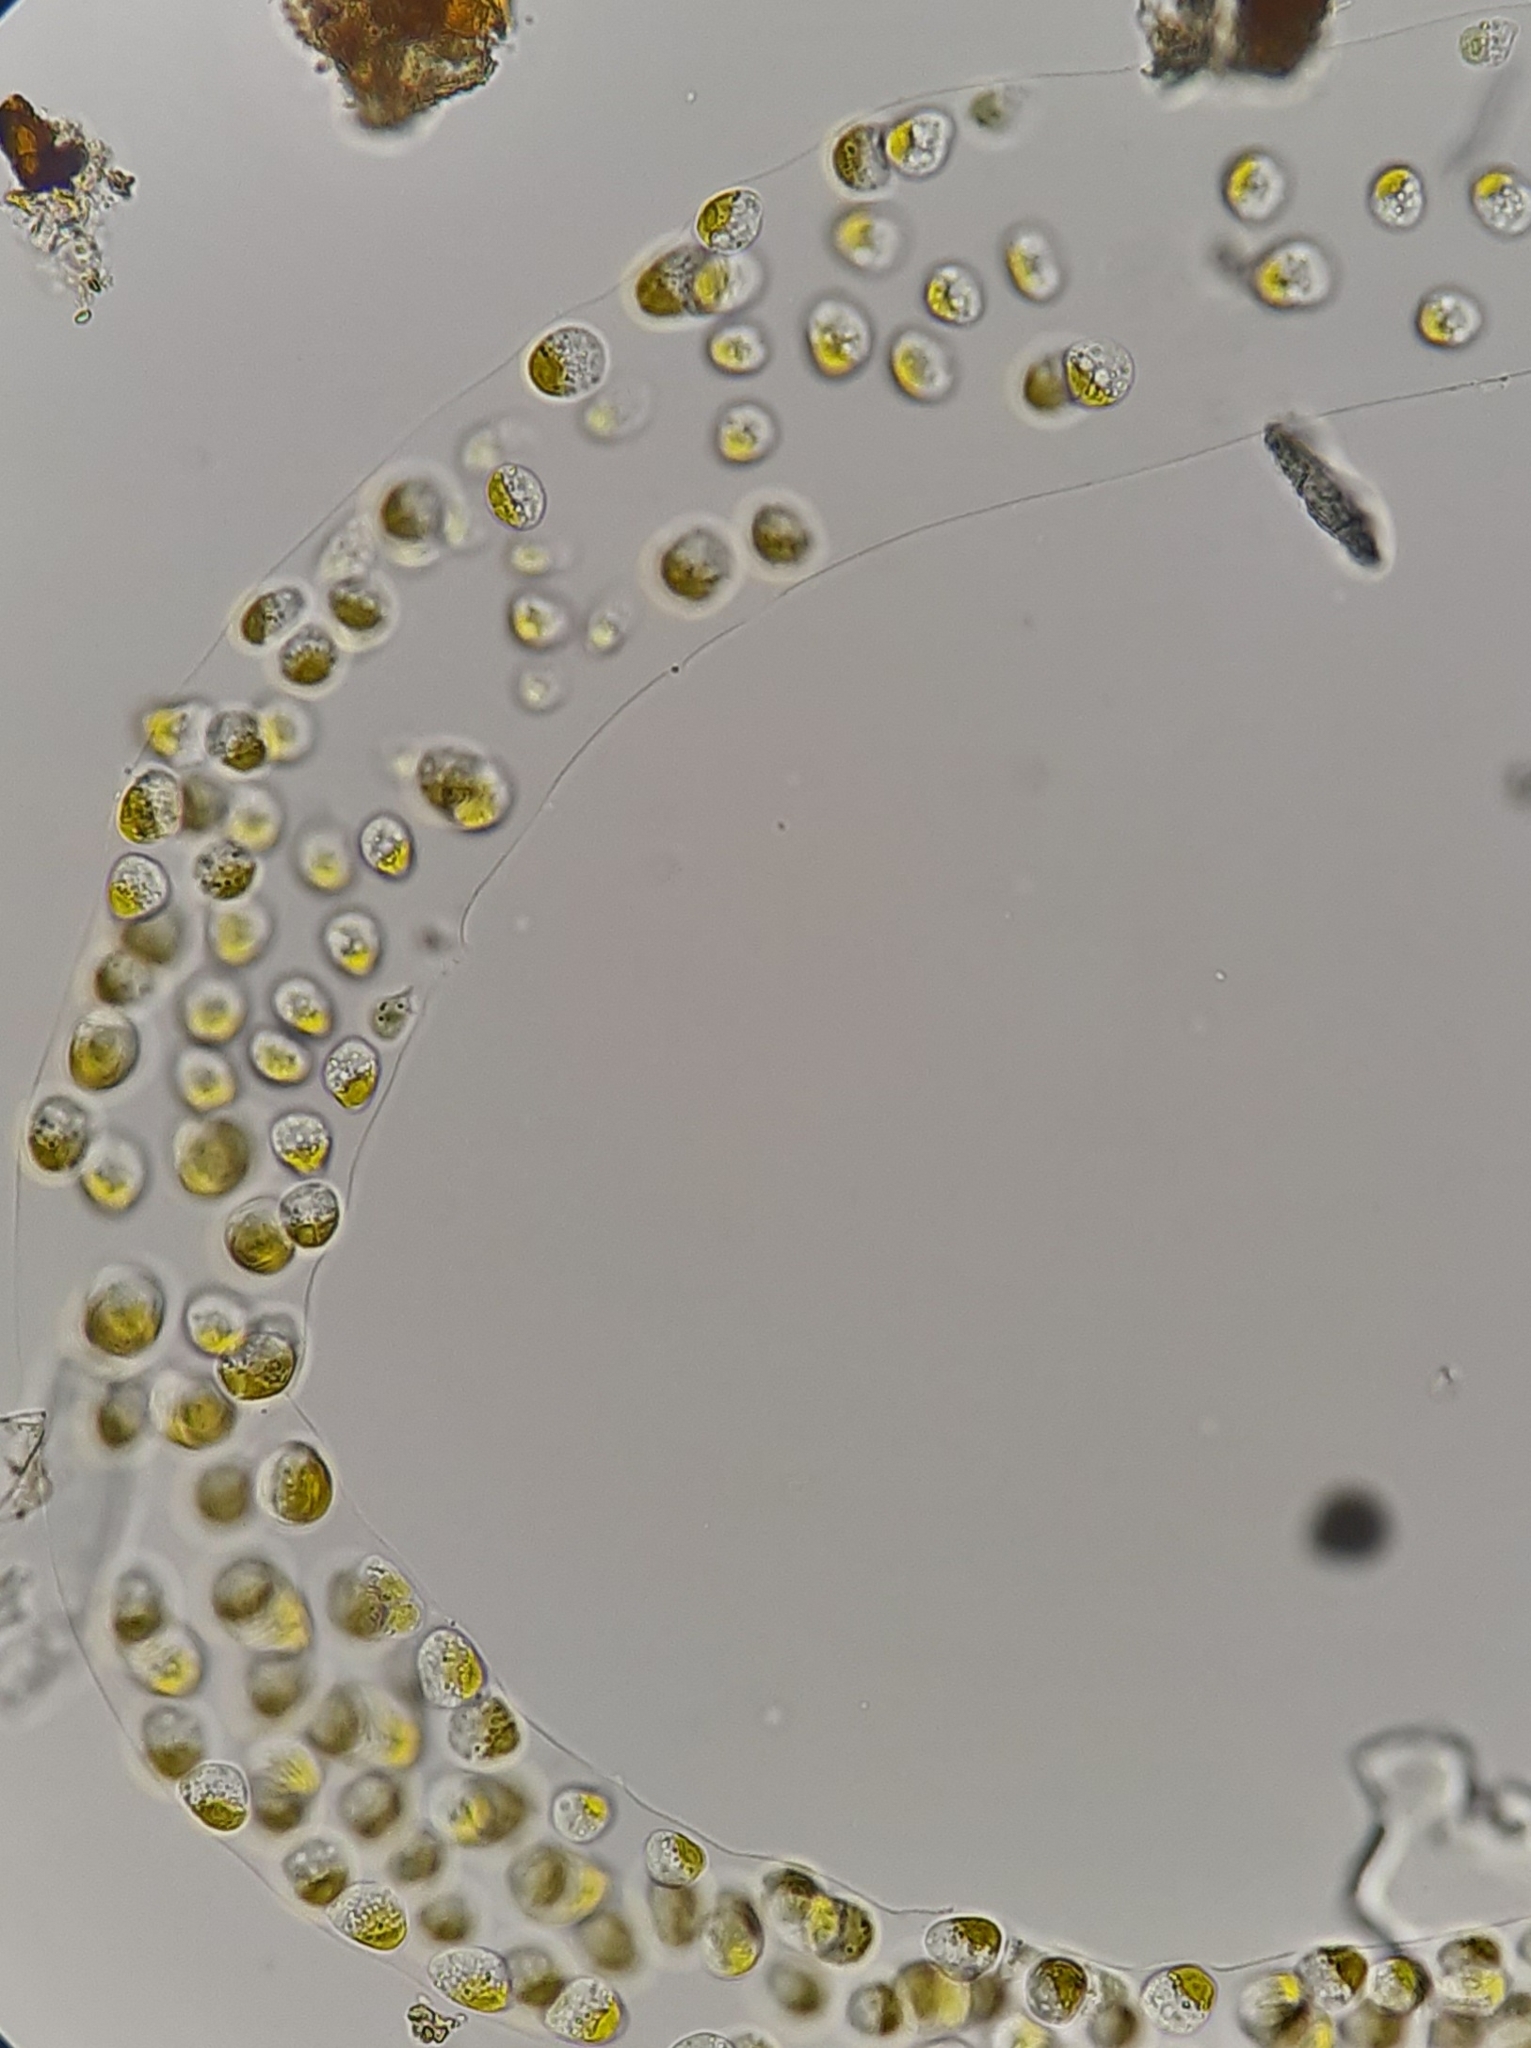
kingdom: Chromista
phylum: Ochrophyta
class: Chrysophyceae
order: Hydrurales
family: Hydruraceae
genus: Hydrurus
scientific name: Hydrurus foetidus
